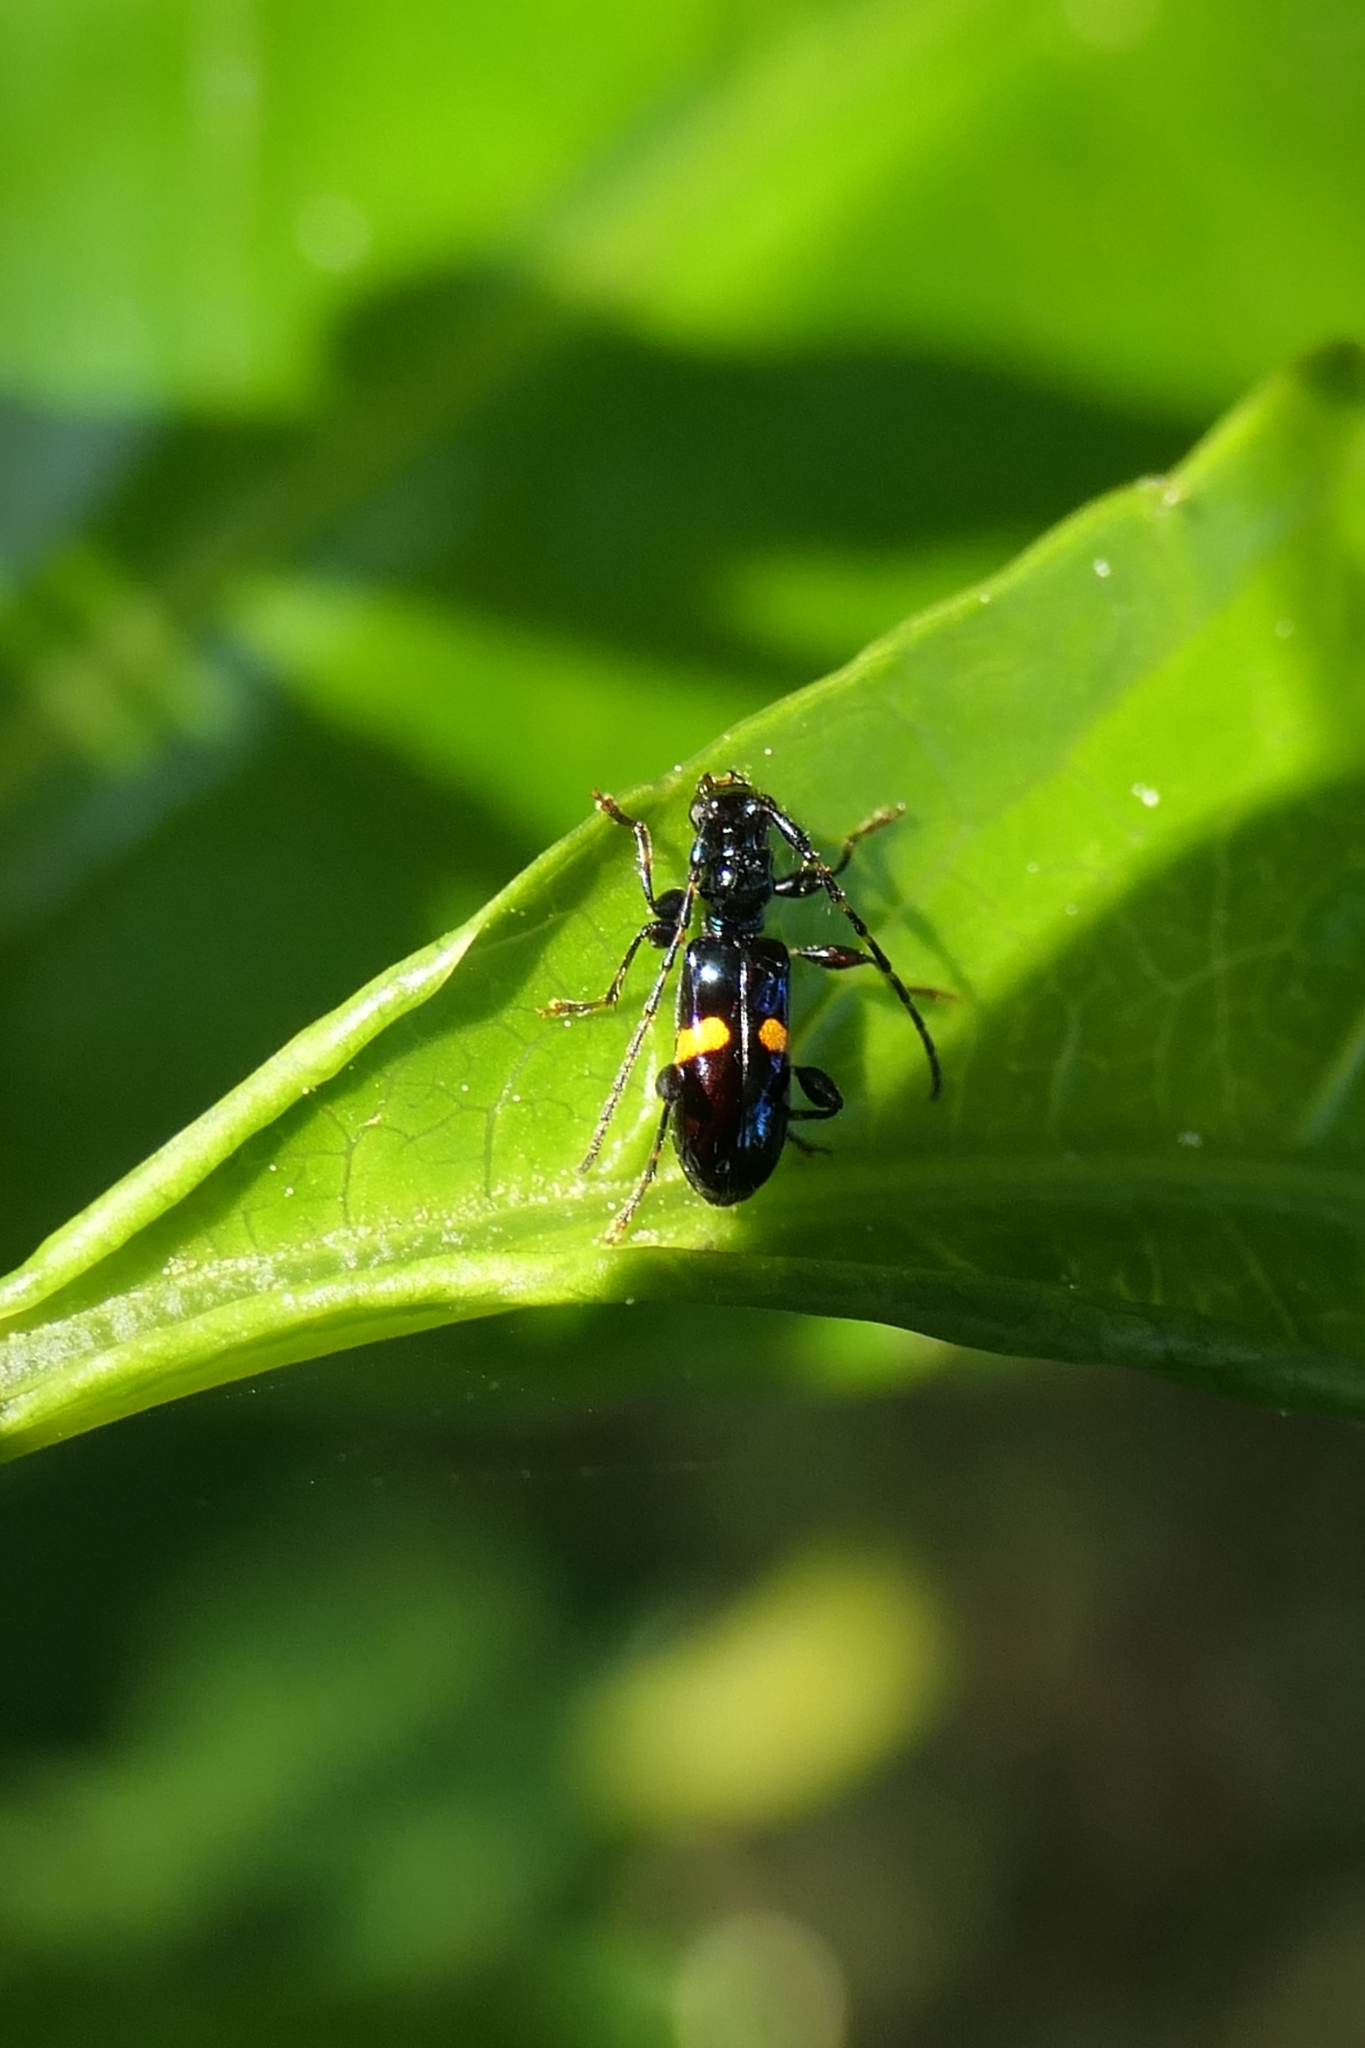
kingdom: Animalia
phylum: Arthropoda
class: Insecta
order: Coleoptera
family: Cerambycidae
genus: Zorion
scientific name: Zorion guttigerum
